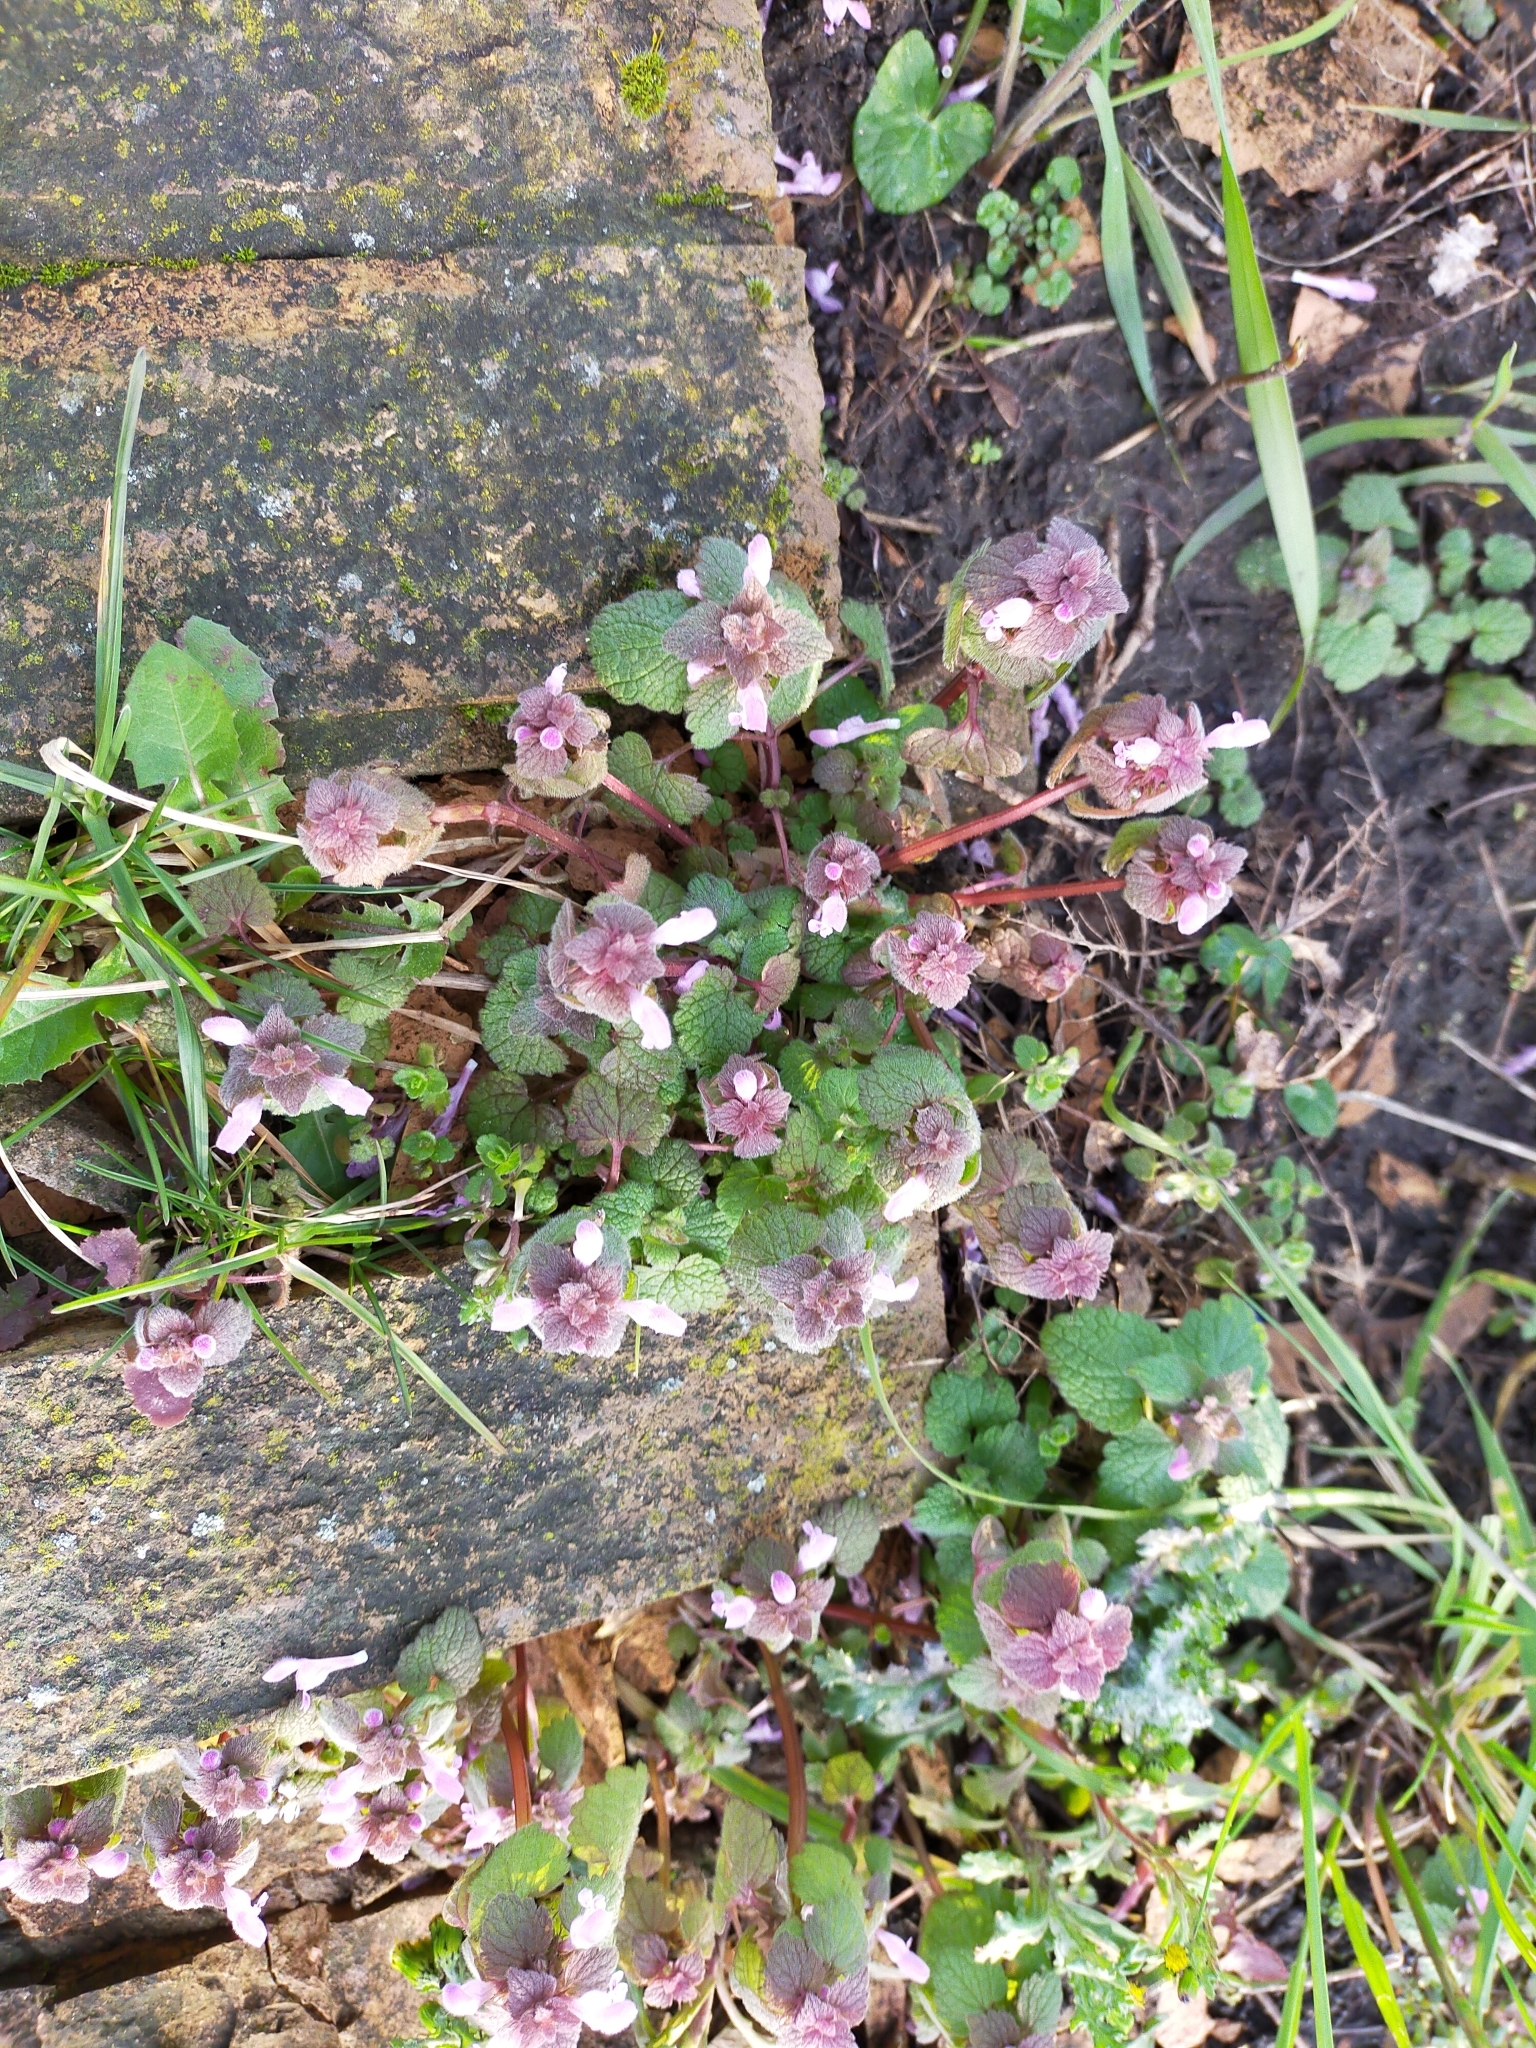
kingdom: Plantae
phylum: Tracheophyta
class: Magnoliopsida
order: Lamiales
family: Lamiaceae
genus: Lamium
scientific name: Lamium purpureum
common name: Red dead-nettle
